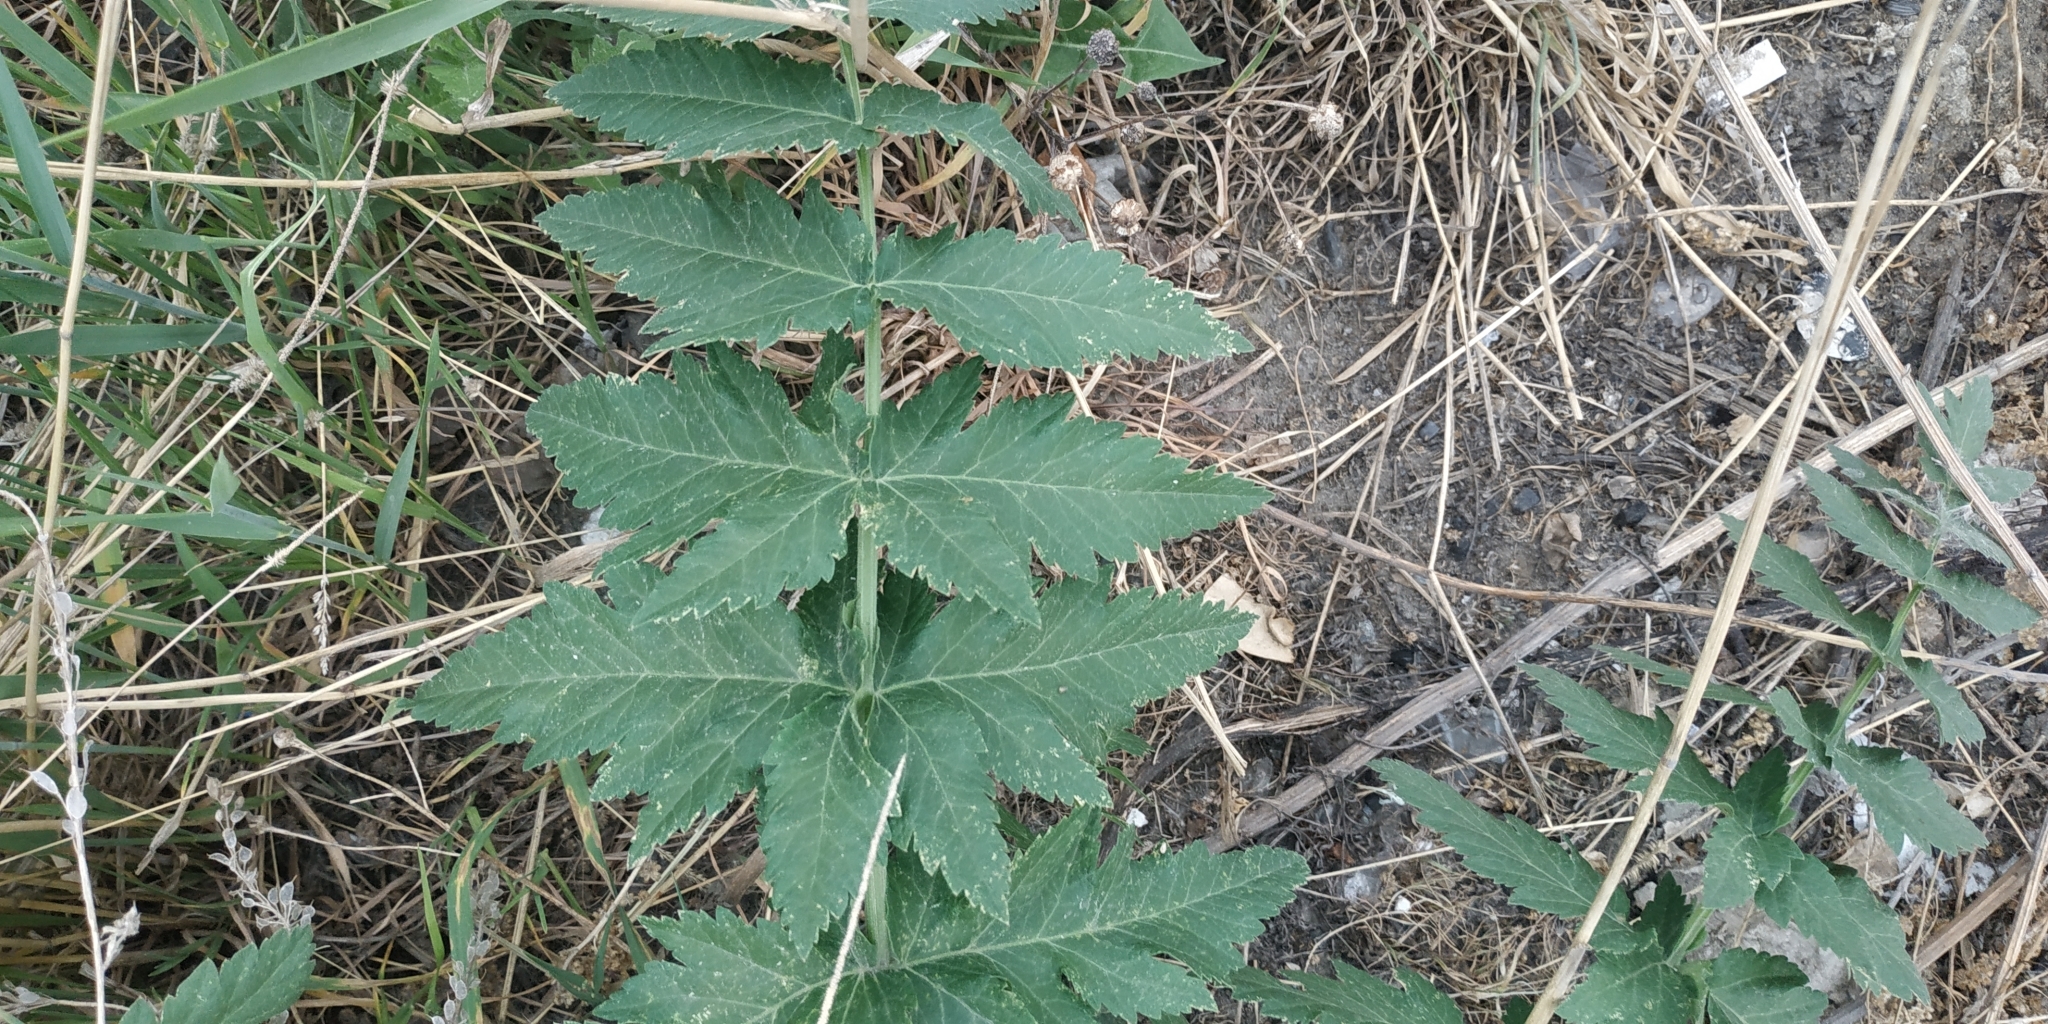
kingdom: Plantae
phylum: Tracheophyta
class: Magnoliopsida
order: Apiales
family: Apiaceae
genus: Pastinaca
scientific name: Pastinaca sativa
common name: Wild parsnip
